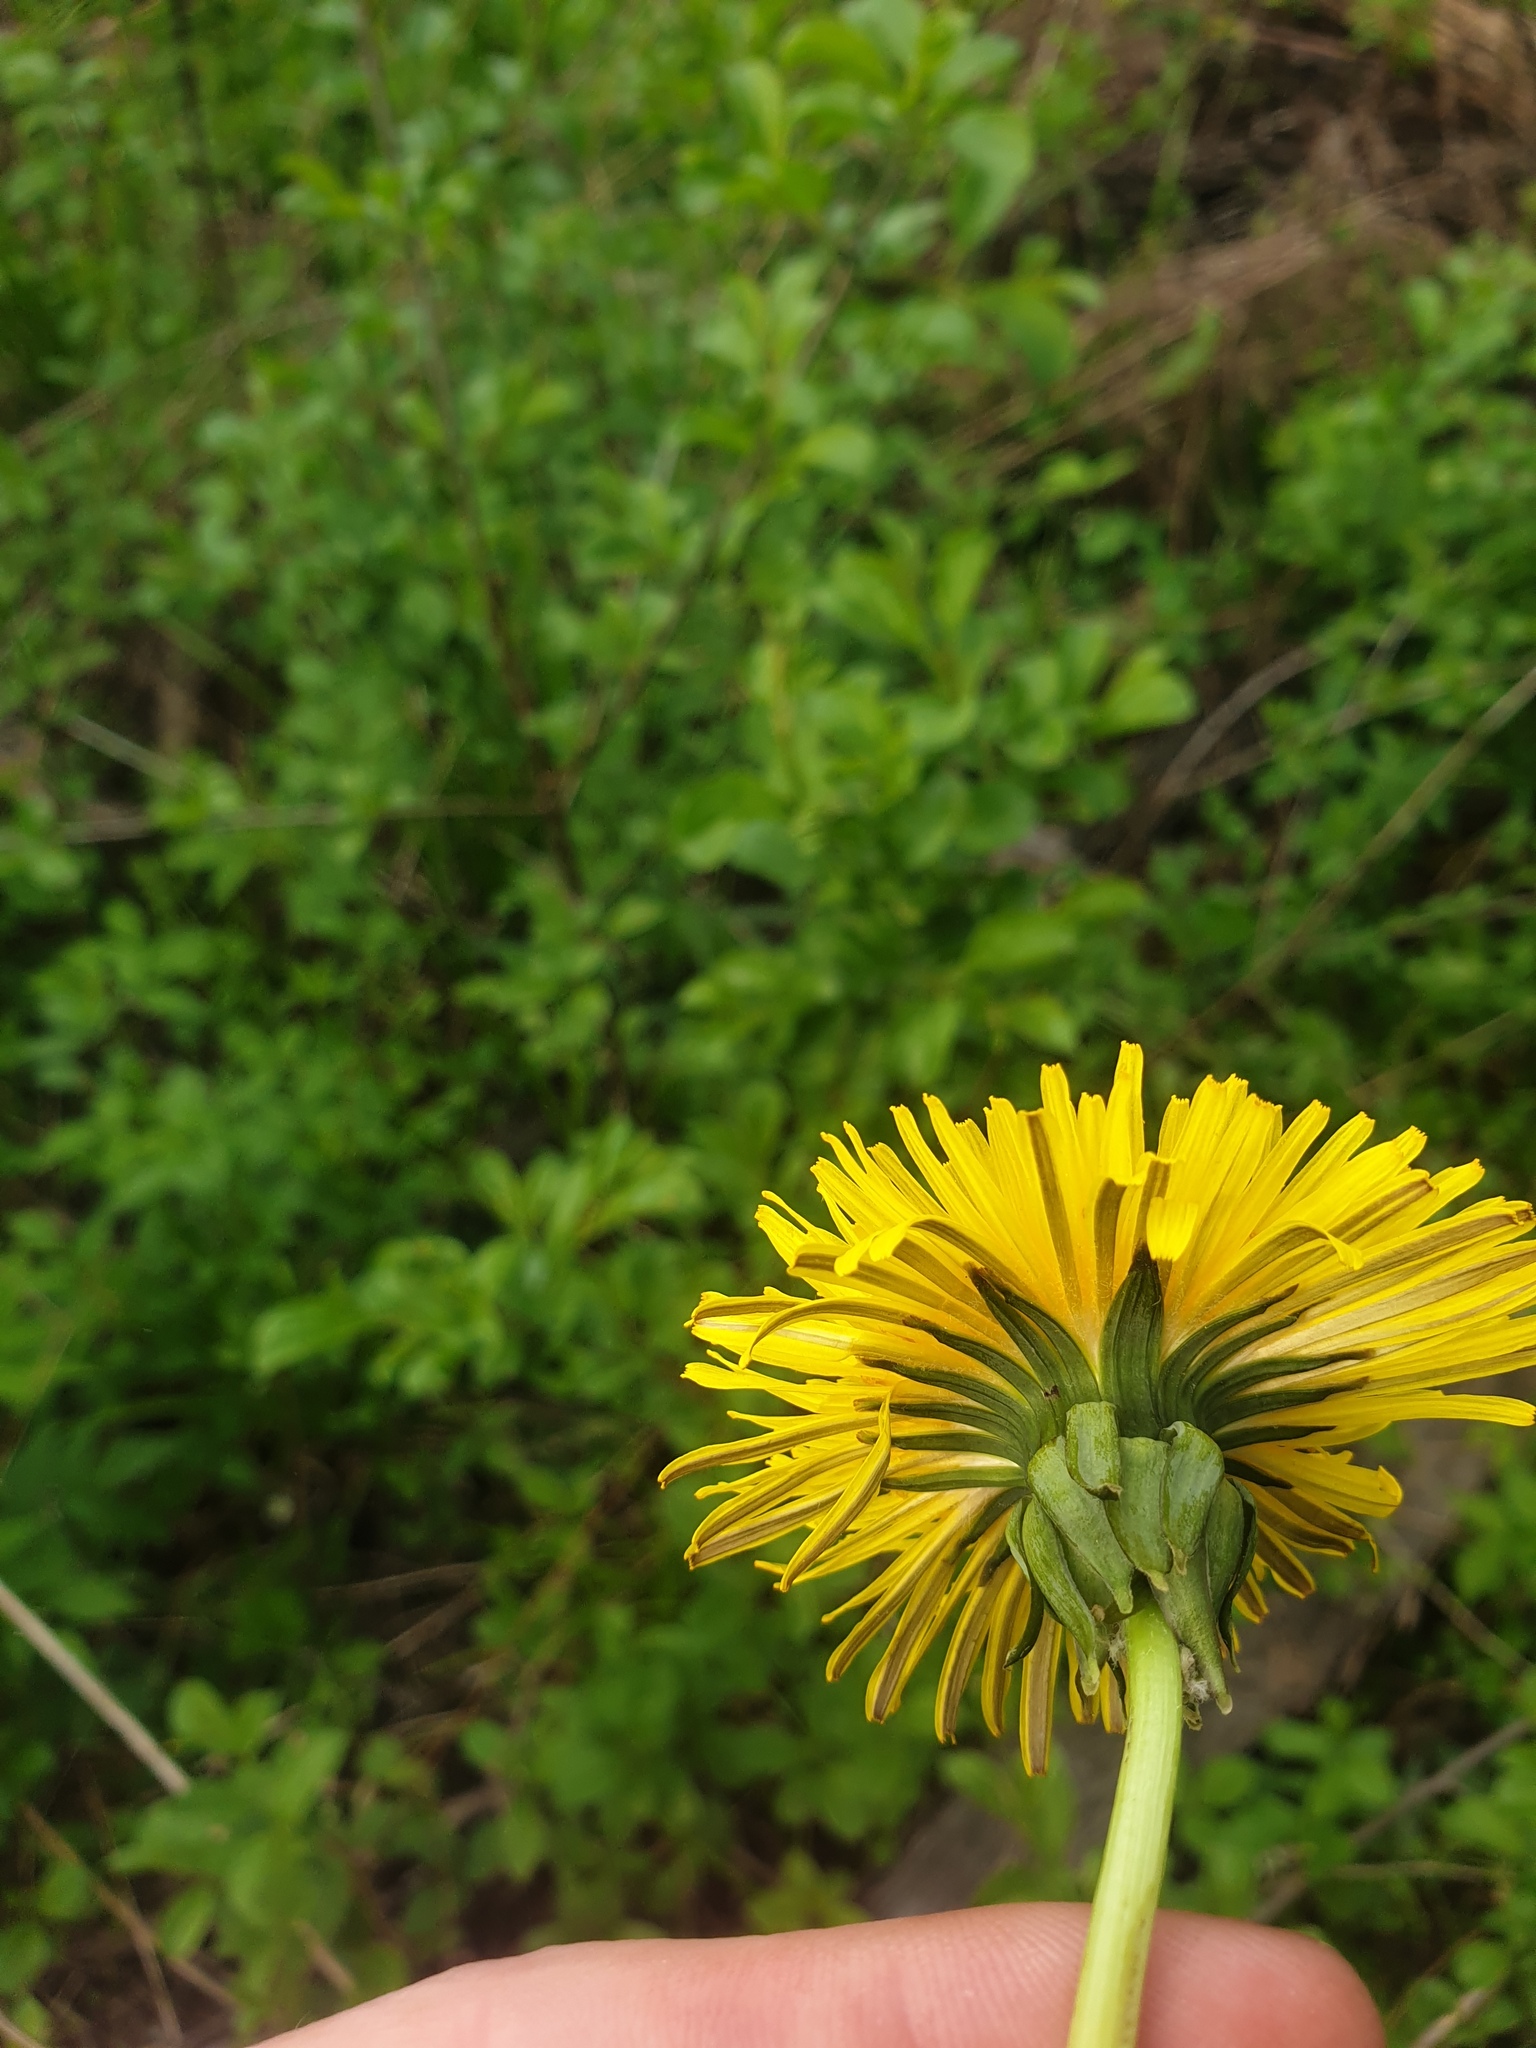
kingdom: Plantae
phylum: Tracheophyta
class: Magnoliopsida
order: Asterales
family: Asteraceae
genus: Taraxacum
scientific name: Taraxacum officinale
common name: Common dandelion
